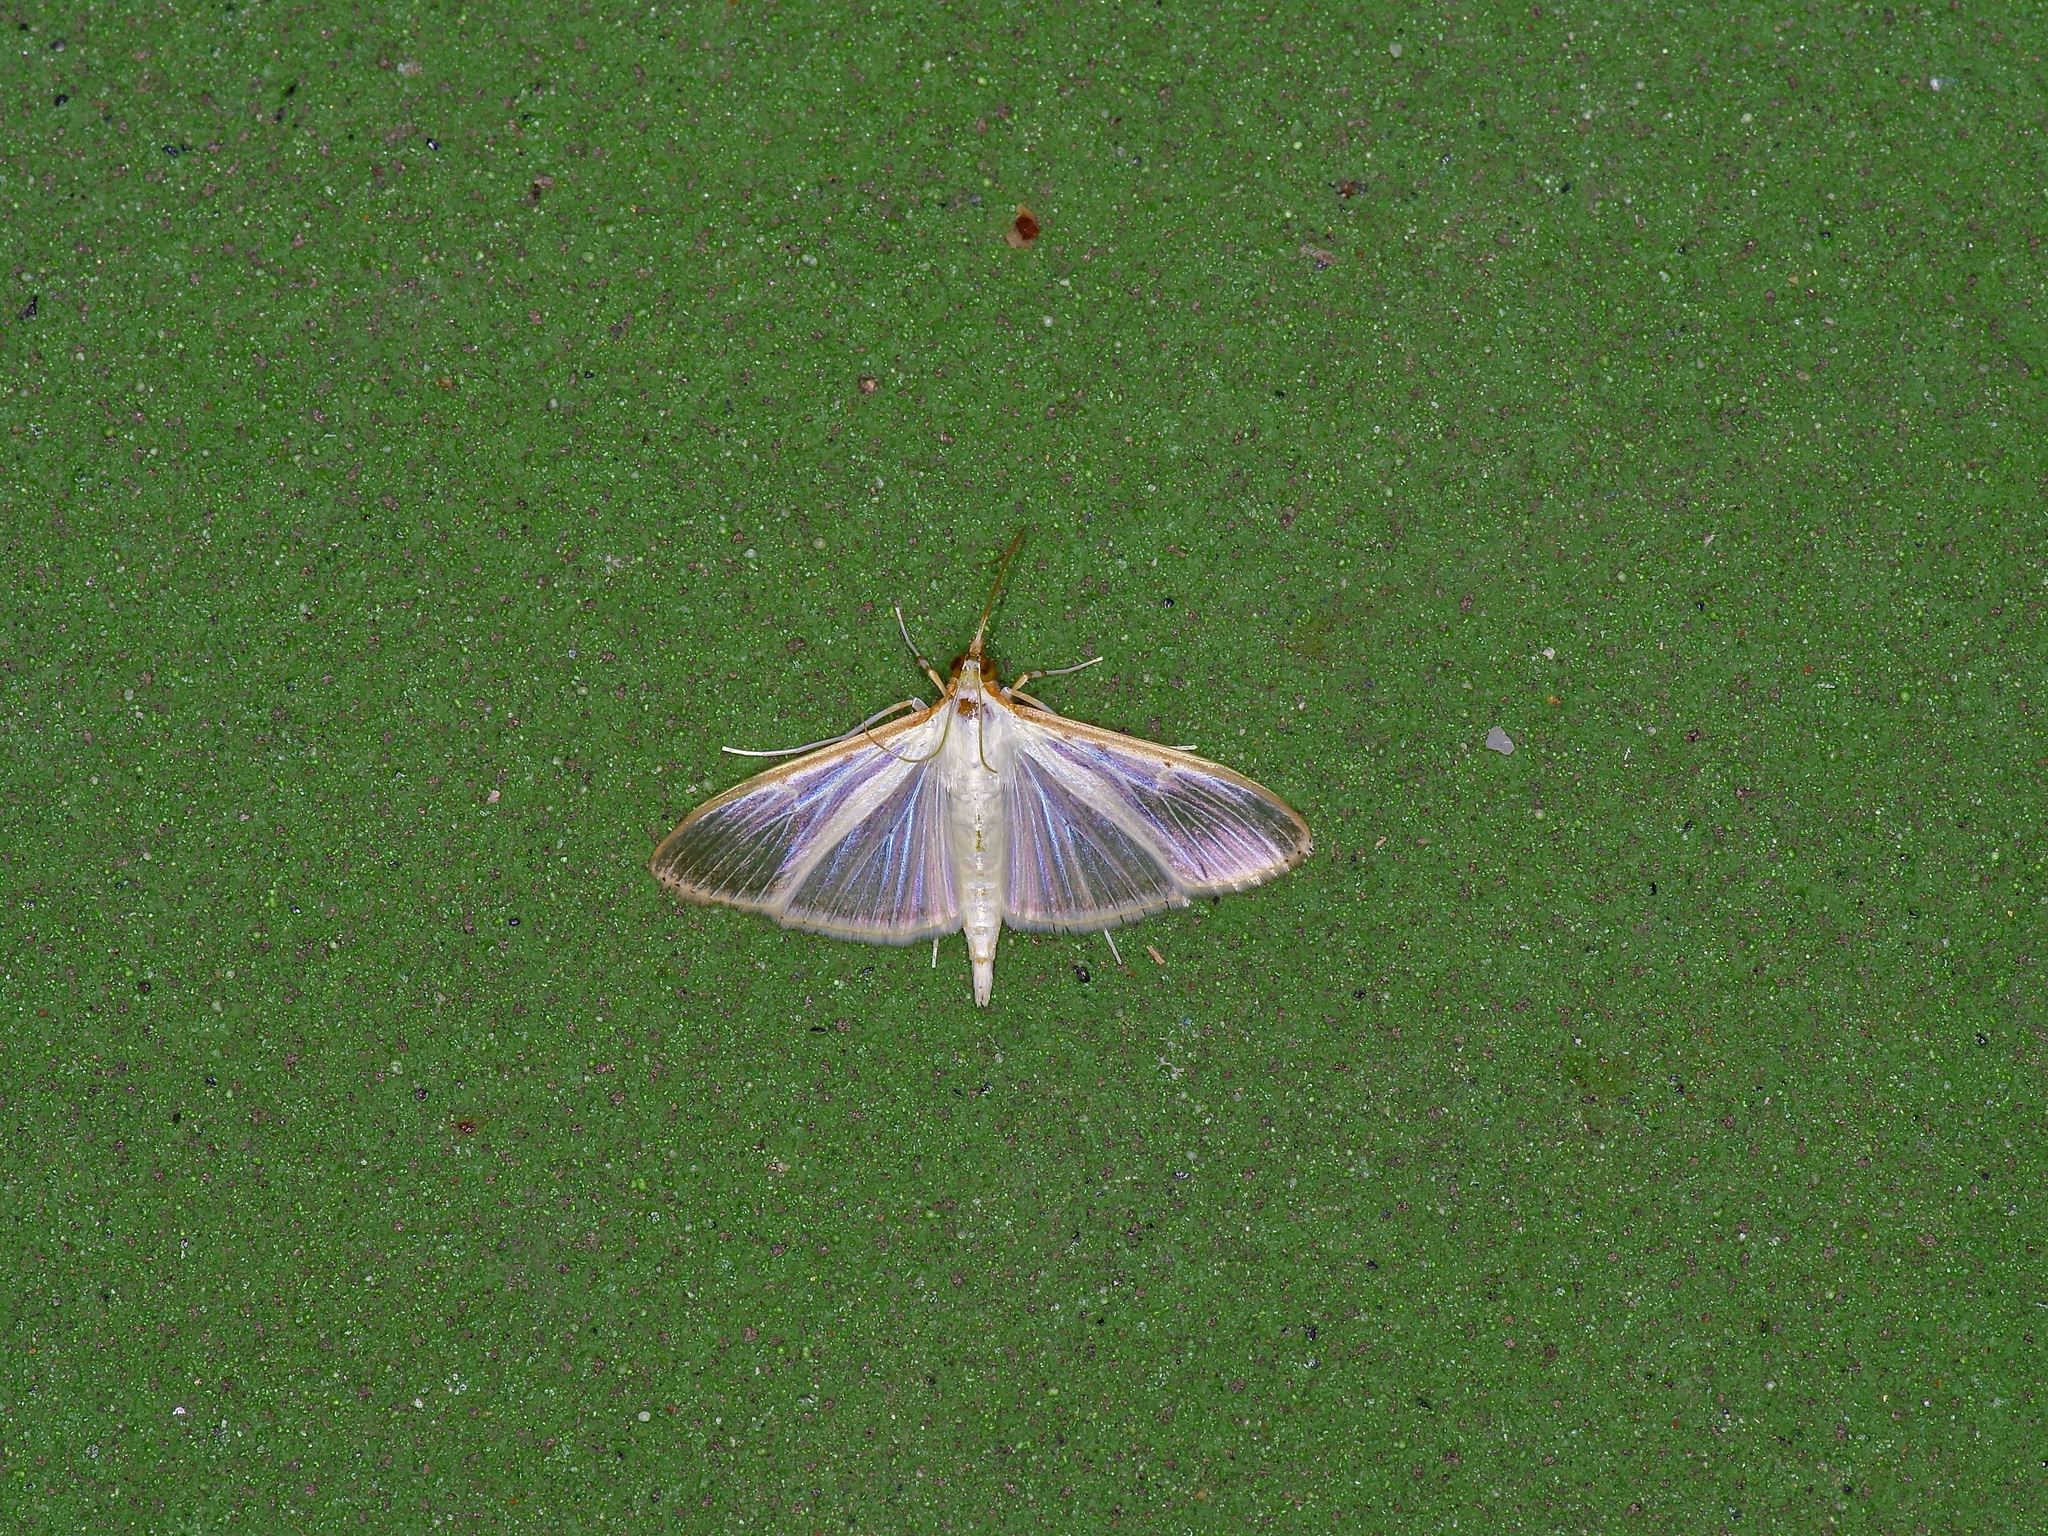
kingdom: Animalia
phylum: Arthropoda
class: Insecta
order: Lepidoptera
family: Crambidae
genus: Palpita
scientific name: Palpita quadristigmalis
